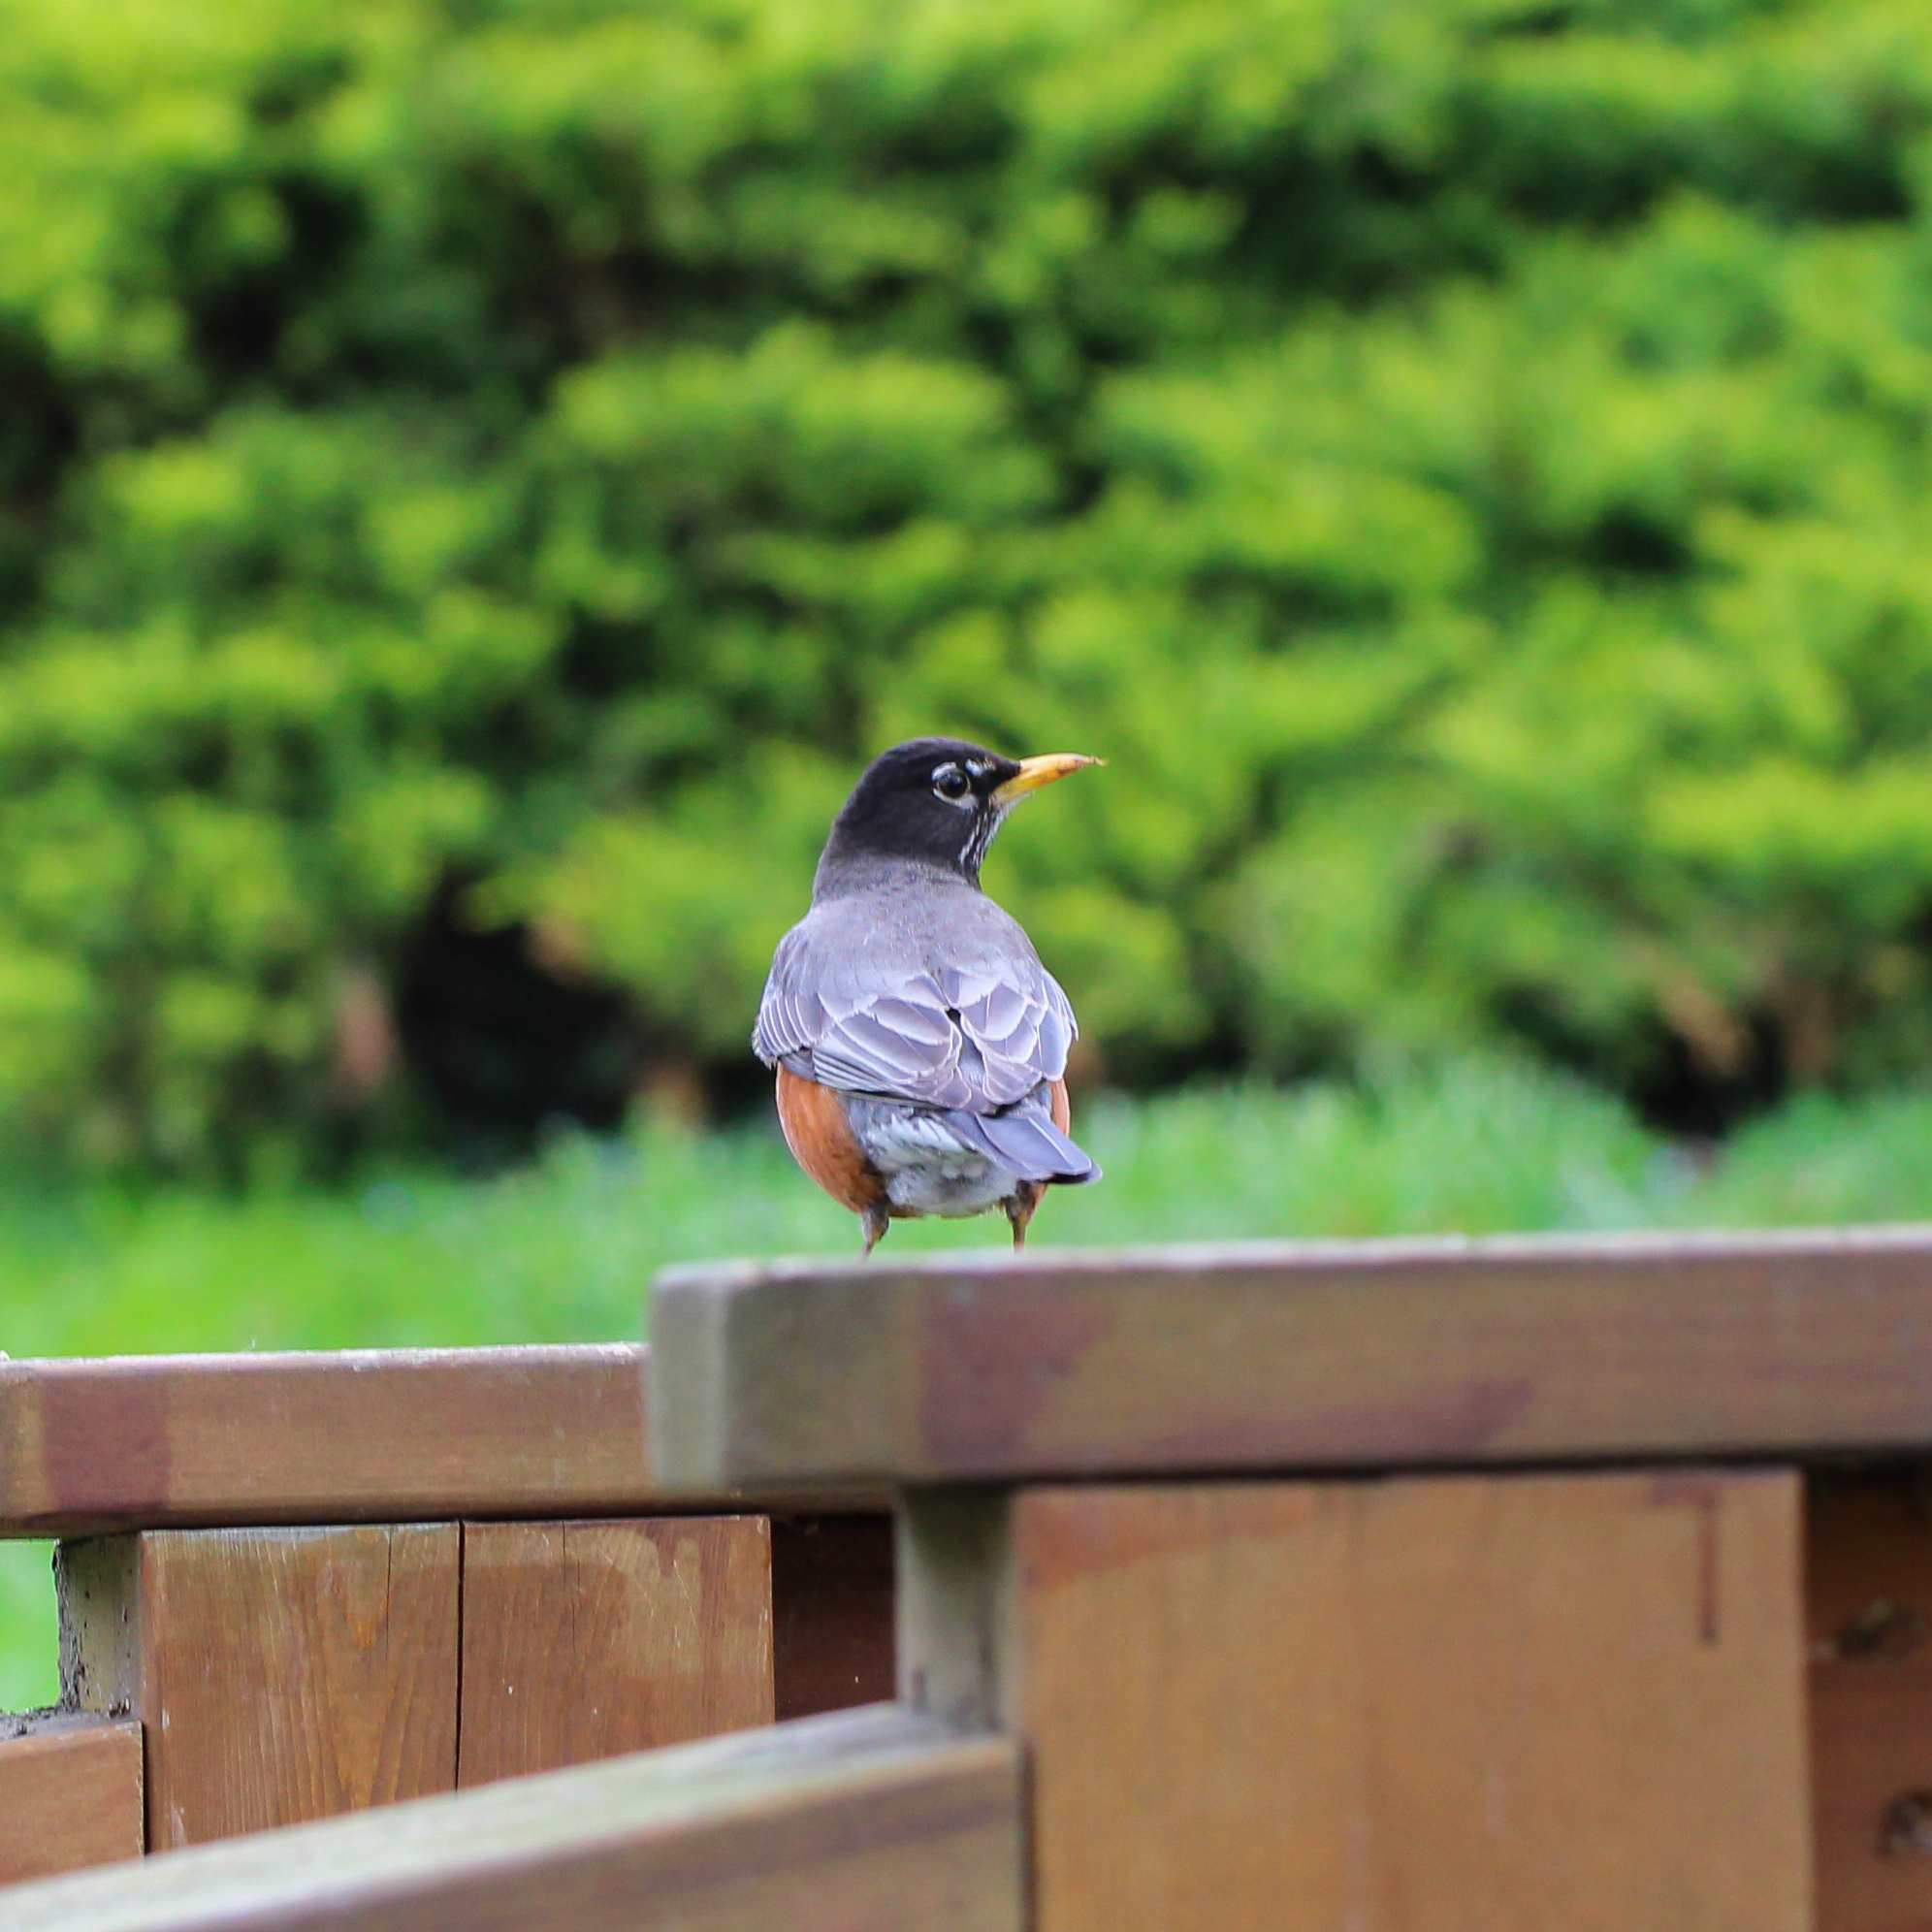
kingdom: Animalia
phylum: Chordata
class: Aves
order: Passeriformes
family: Turdidae
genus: Turdus
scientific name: Turdus migratorius
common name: American robin
